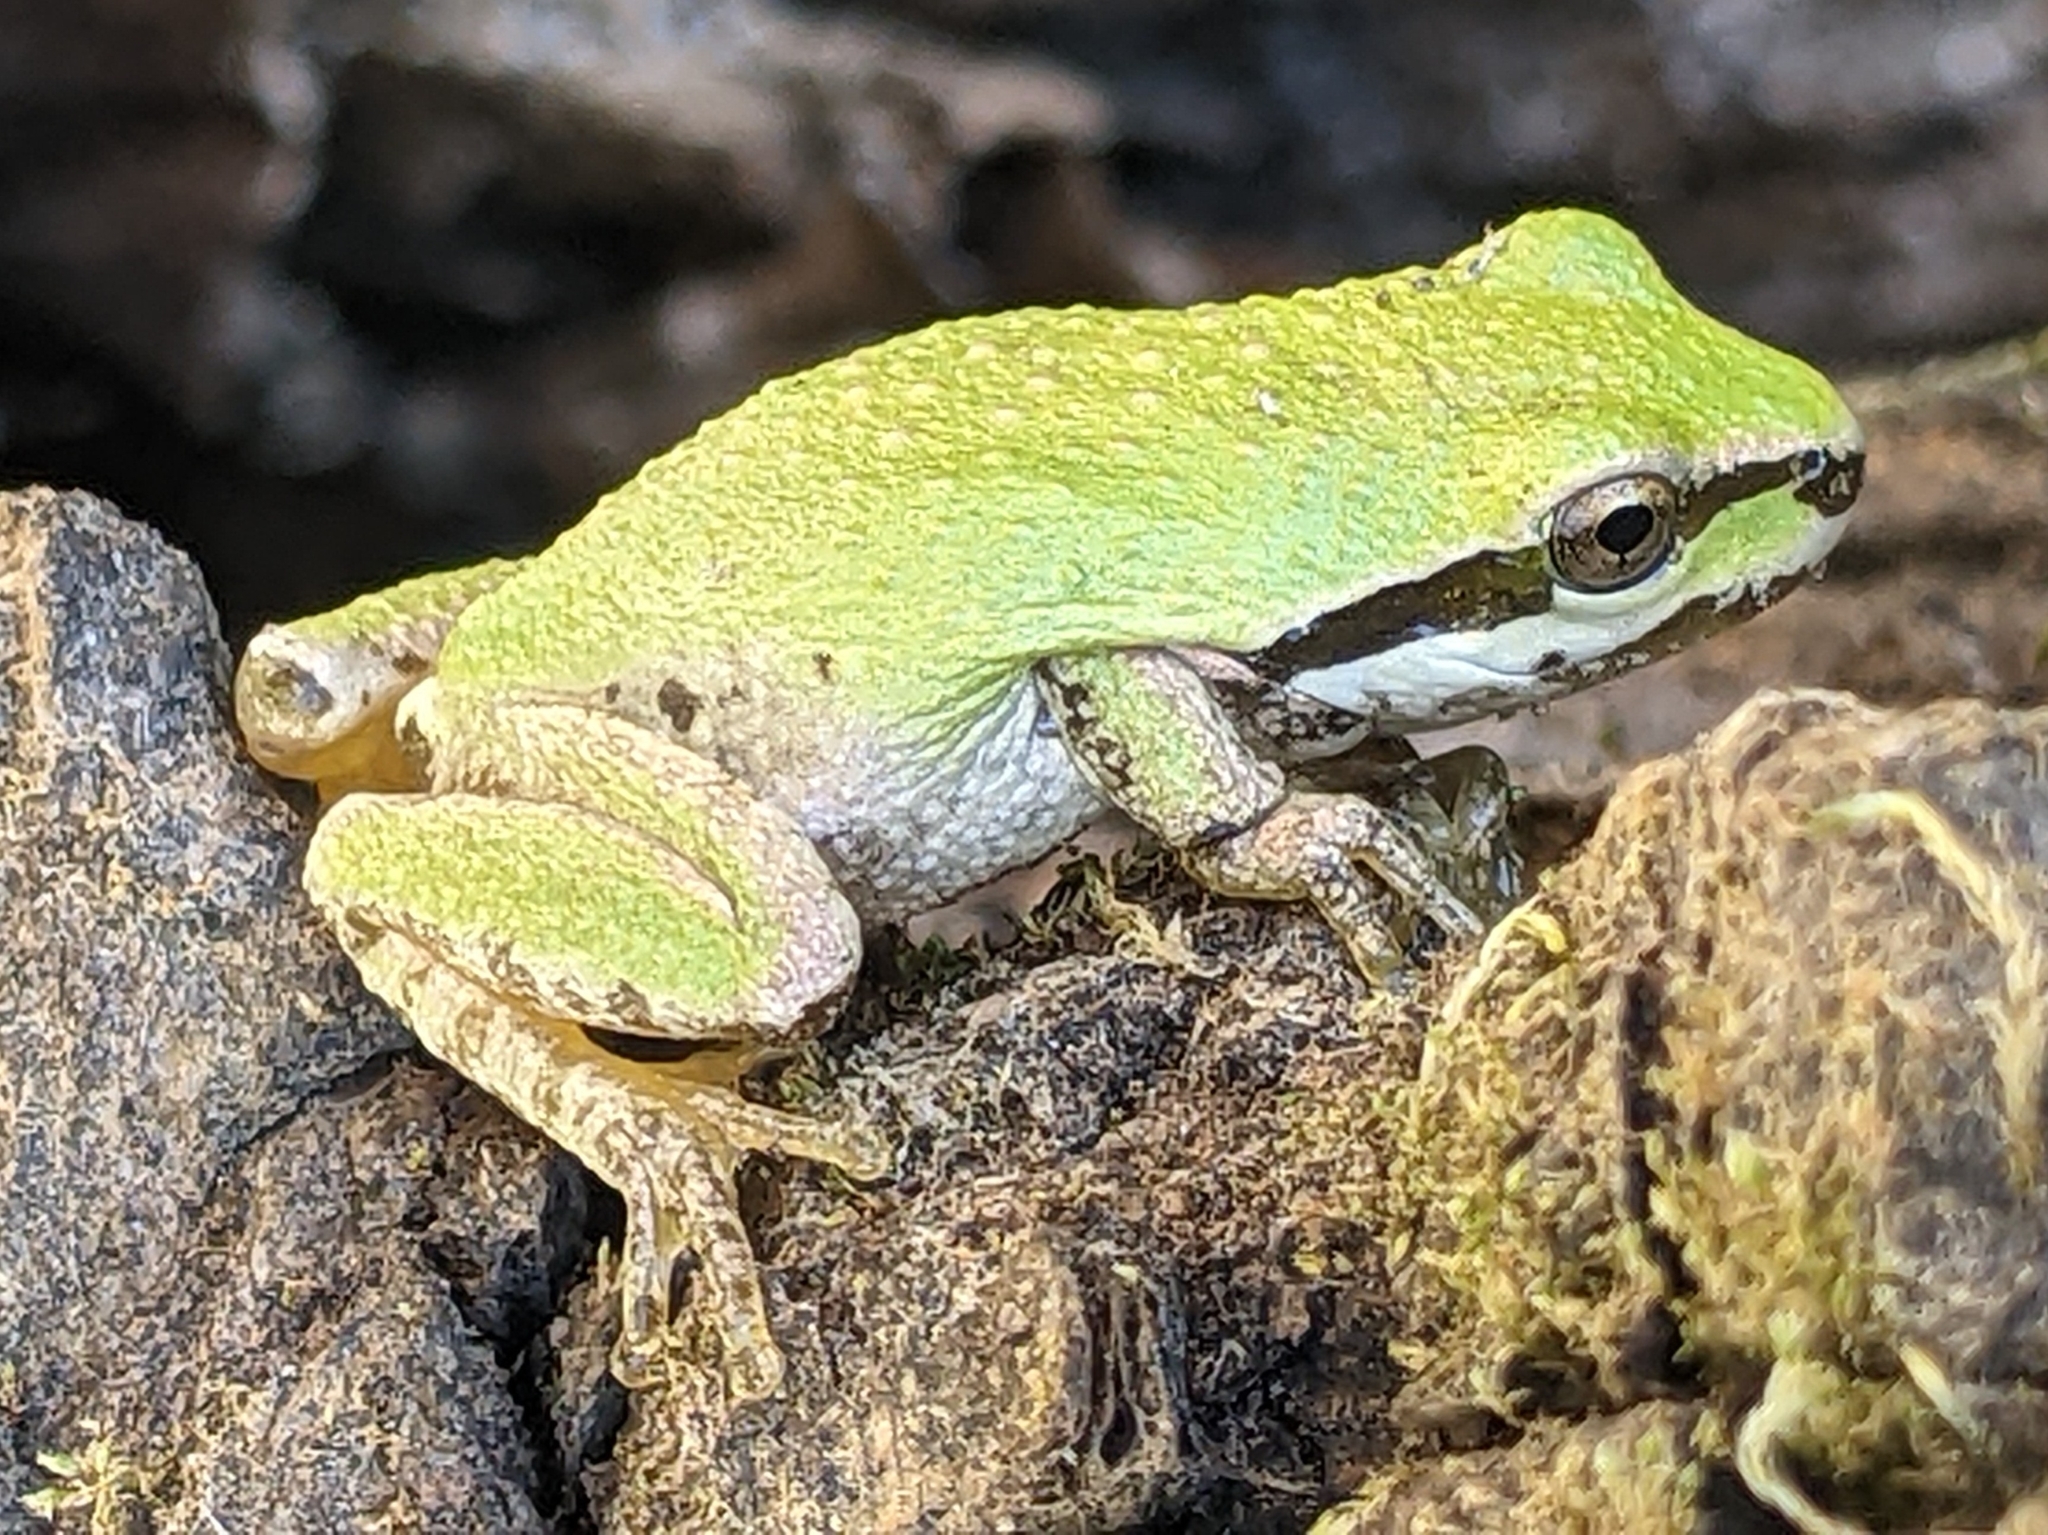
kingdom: Animalia
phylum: Chordata
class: Amphibia
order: Anura
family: Hylidae
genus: Pseudacris
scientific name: Pseudacris regilla
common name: Pacific chorus frog
